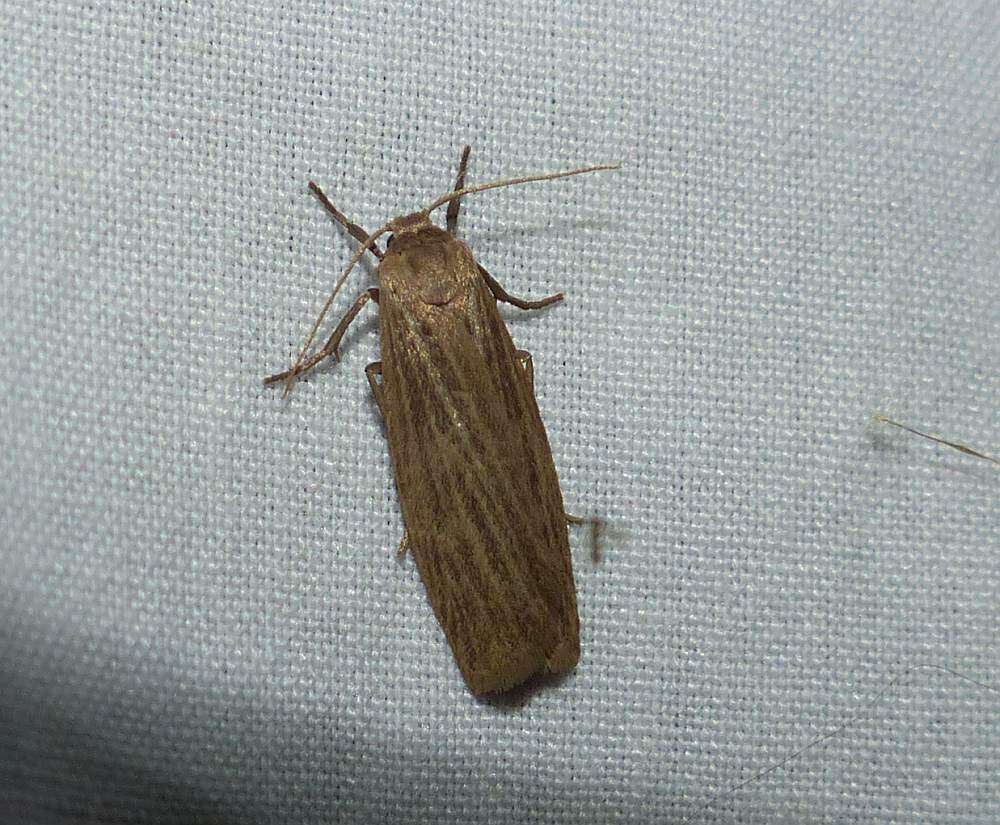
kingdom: Animalia
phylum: Arthropoda
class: Insecta
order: Lepidoptera
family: Erebidae
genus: Crambidia
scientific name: Crambidia pallida
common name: Pale lichen moth
